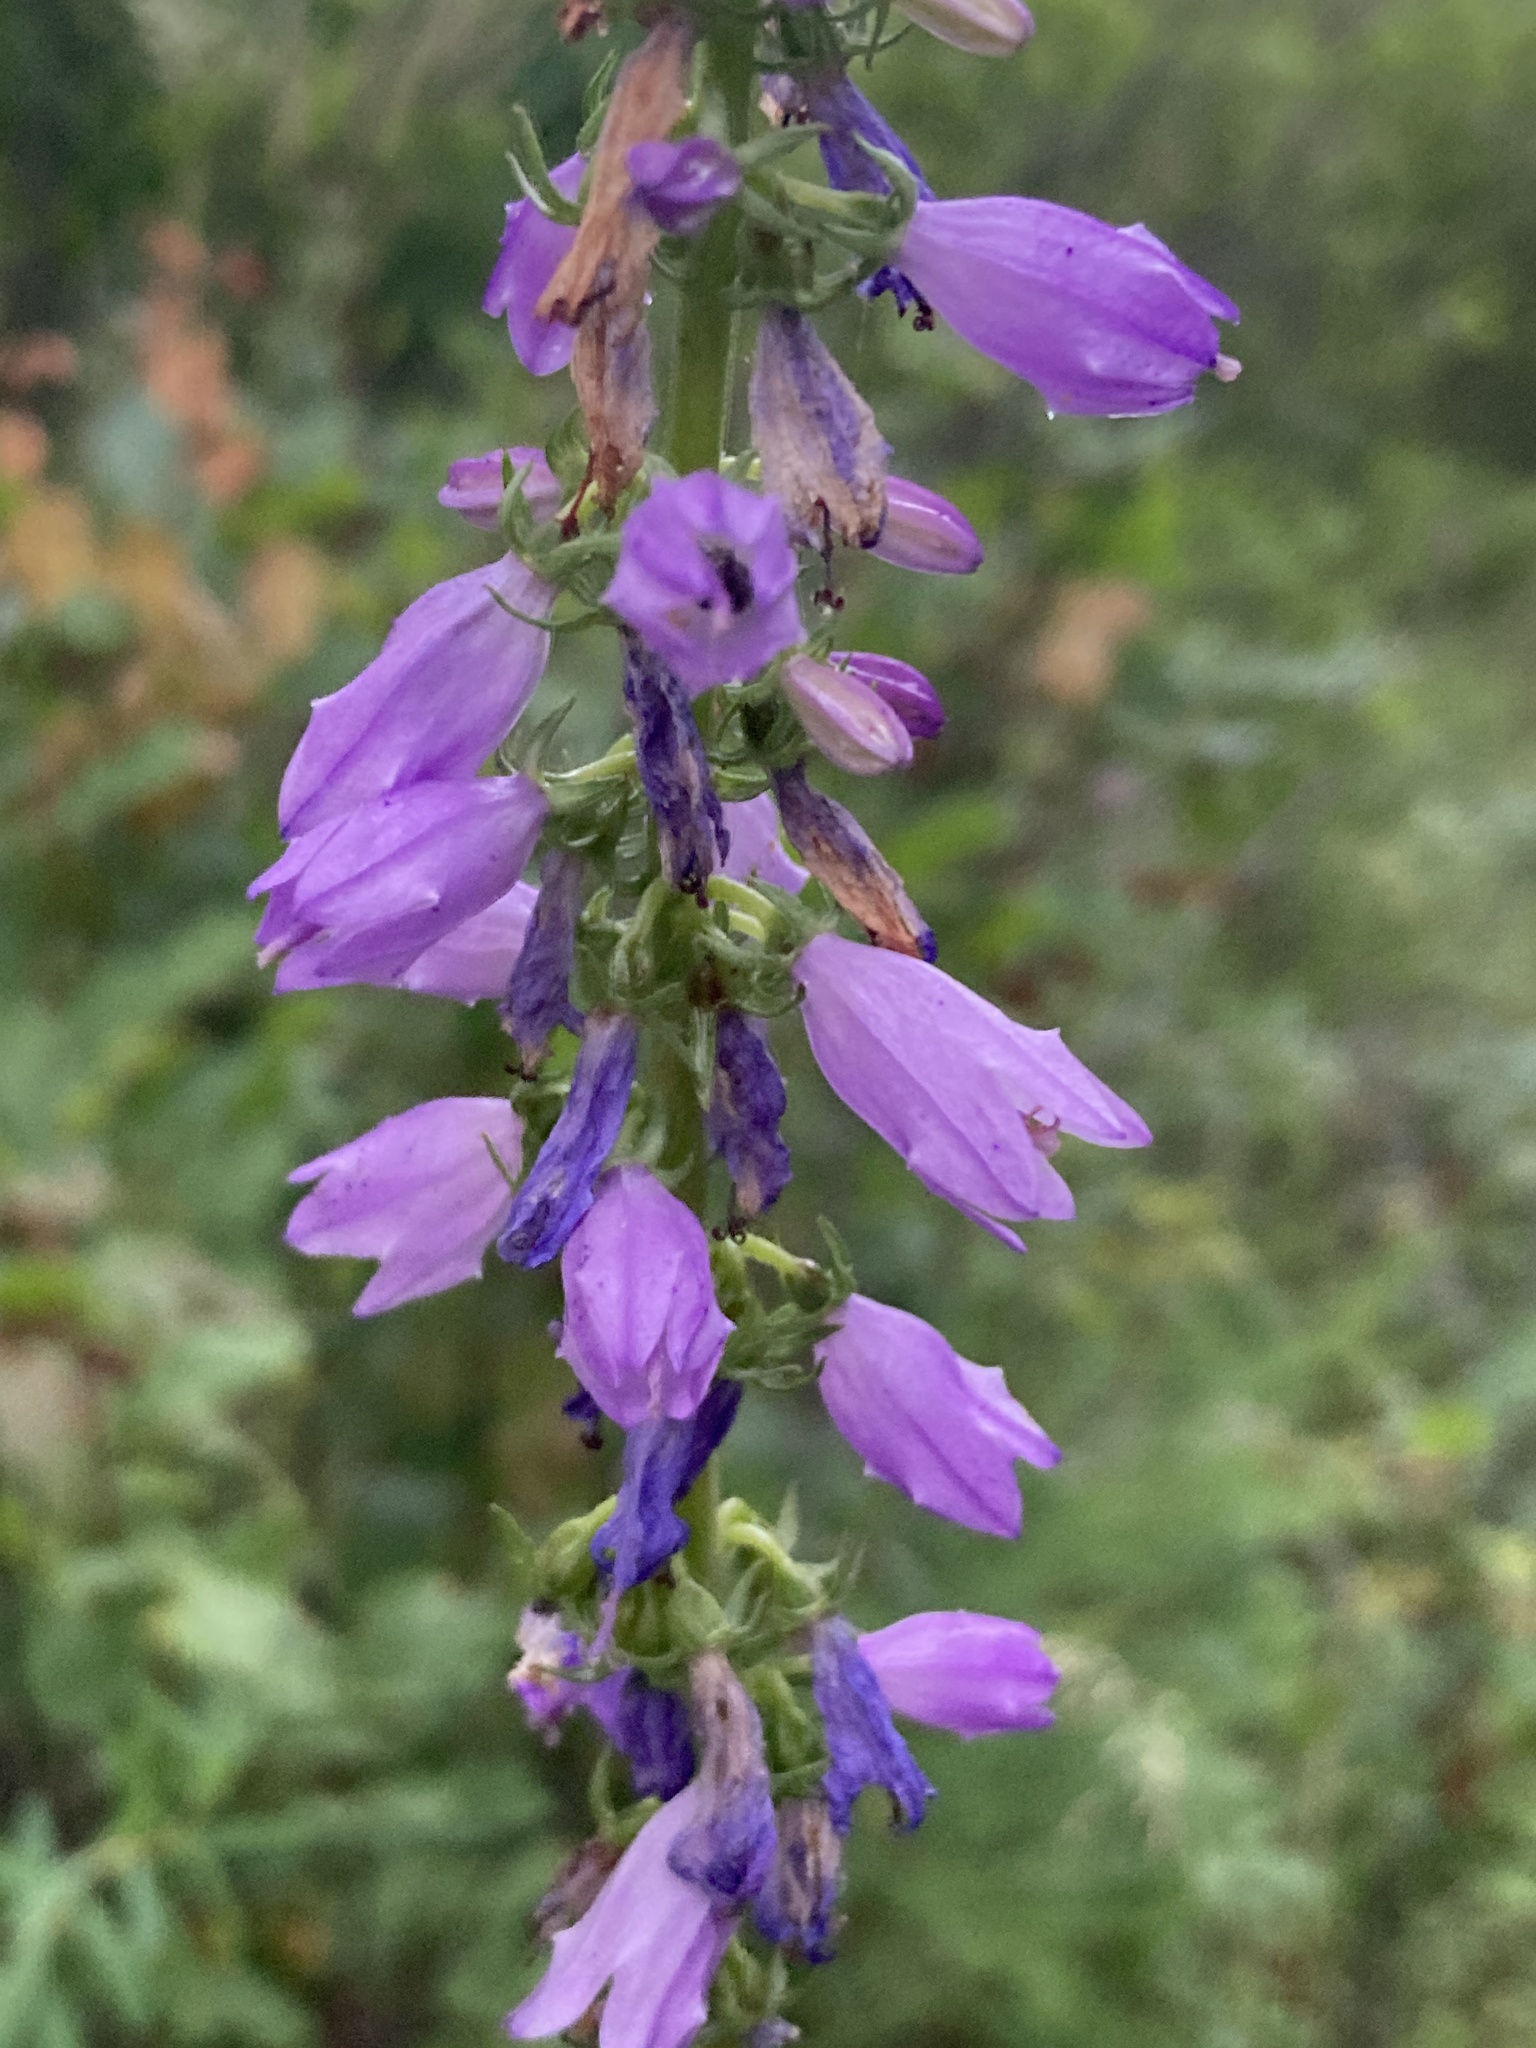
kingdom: Plantae
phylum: Tracheophyta
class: Magnoliopsida
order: Asterales
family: Campanulaceae
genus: Campanula
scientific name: Campanula bononiensis
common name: Pale bellflower
